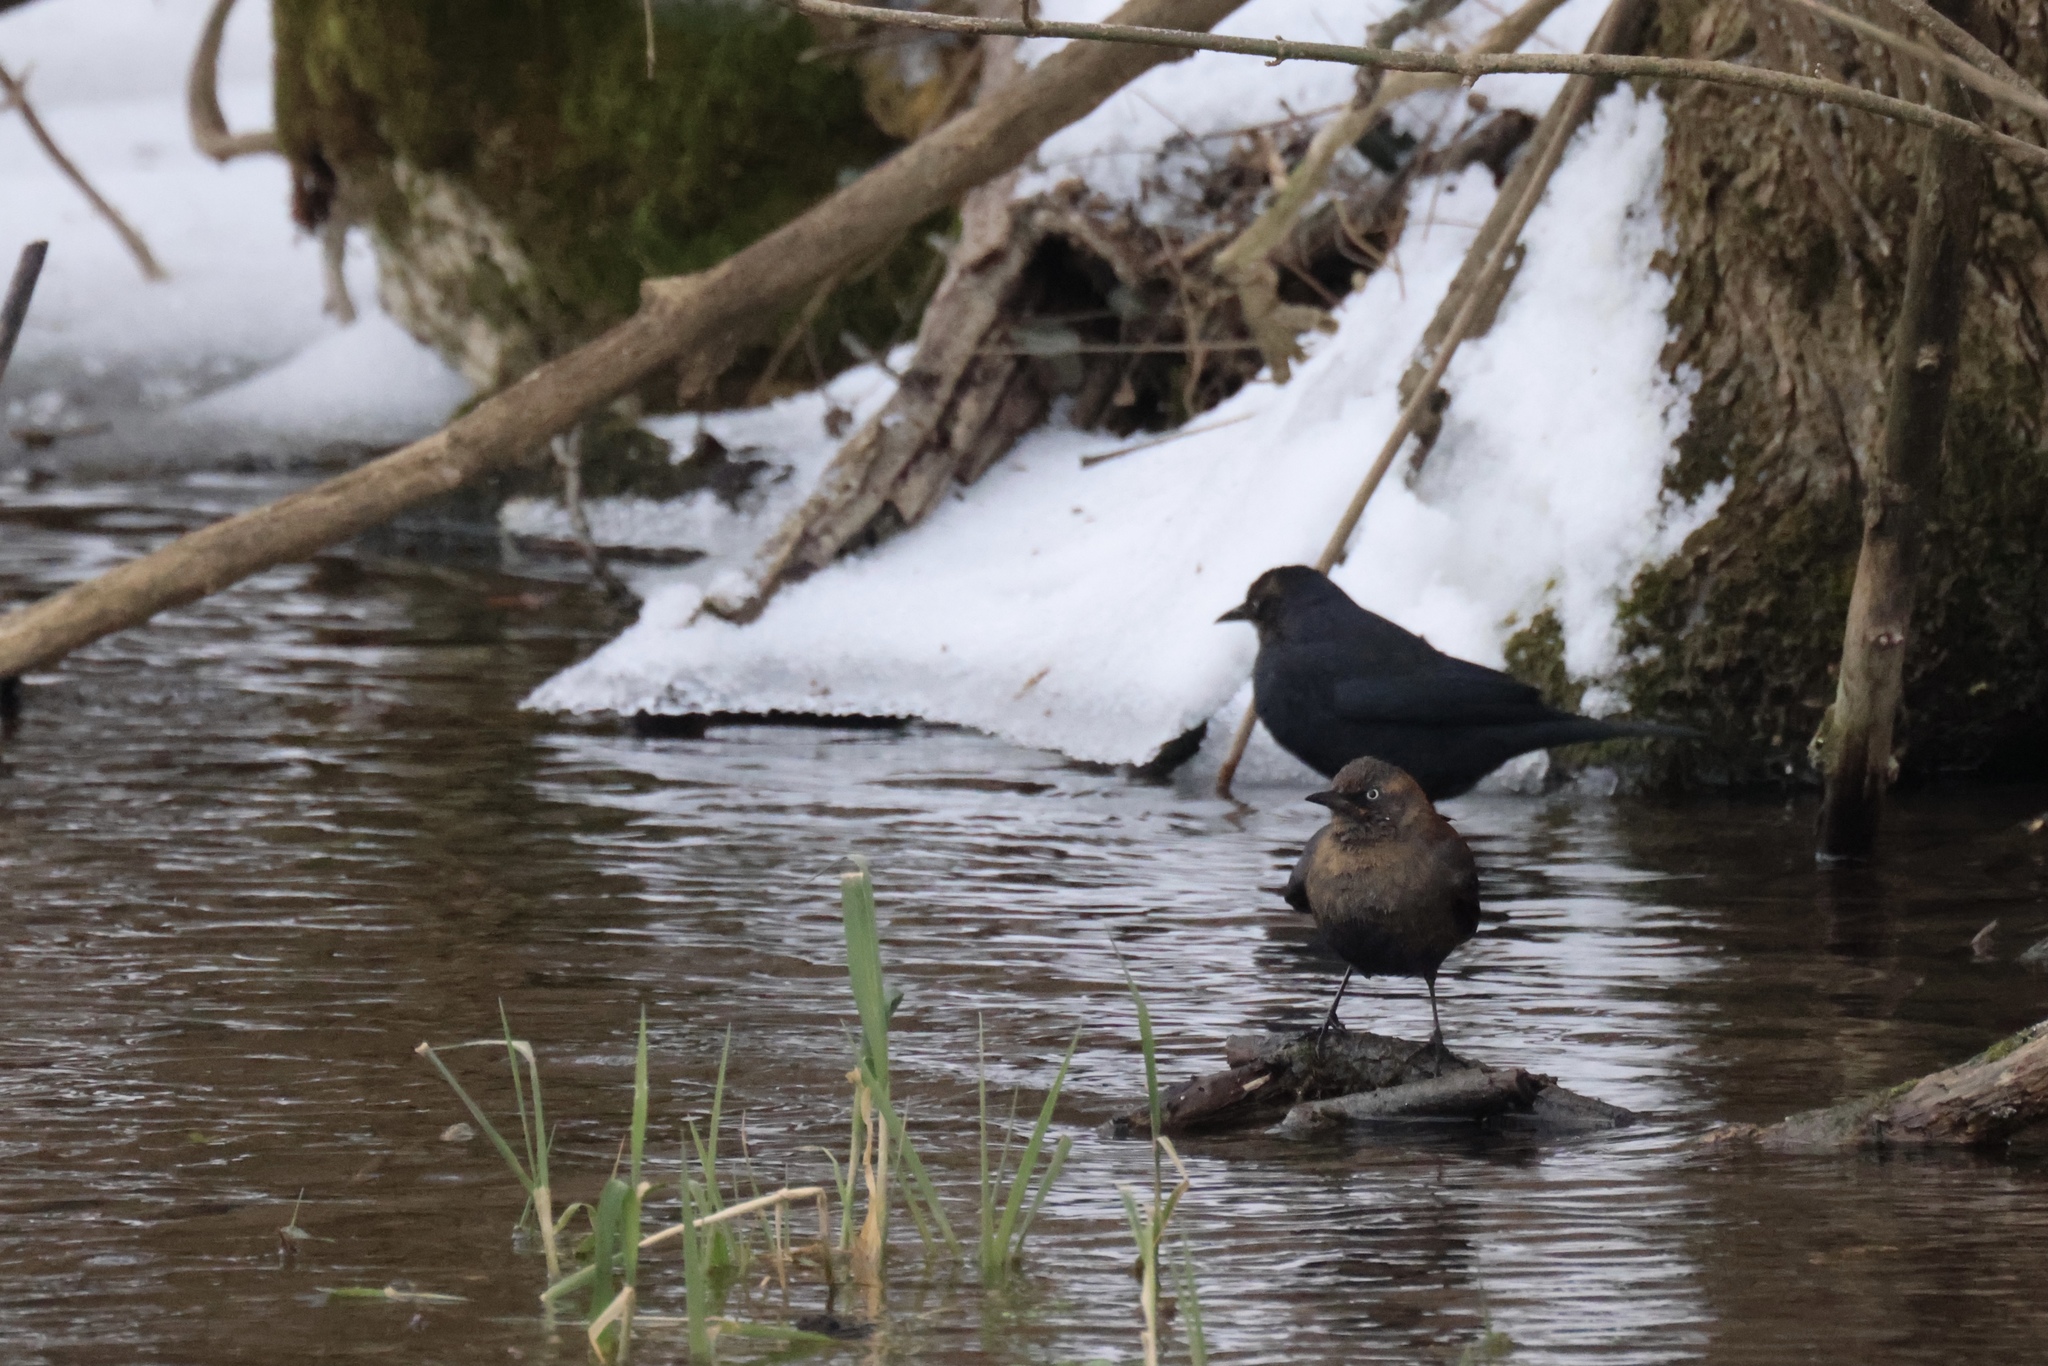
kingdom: Animalia
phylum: Chordata
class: Aves
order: Passeriformes
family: Icteridae
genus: Euphagus
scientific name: Euphagus carolinus
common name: Rusty blackbird
